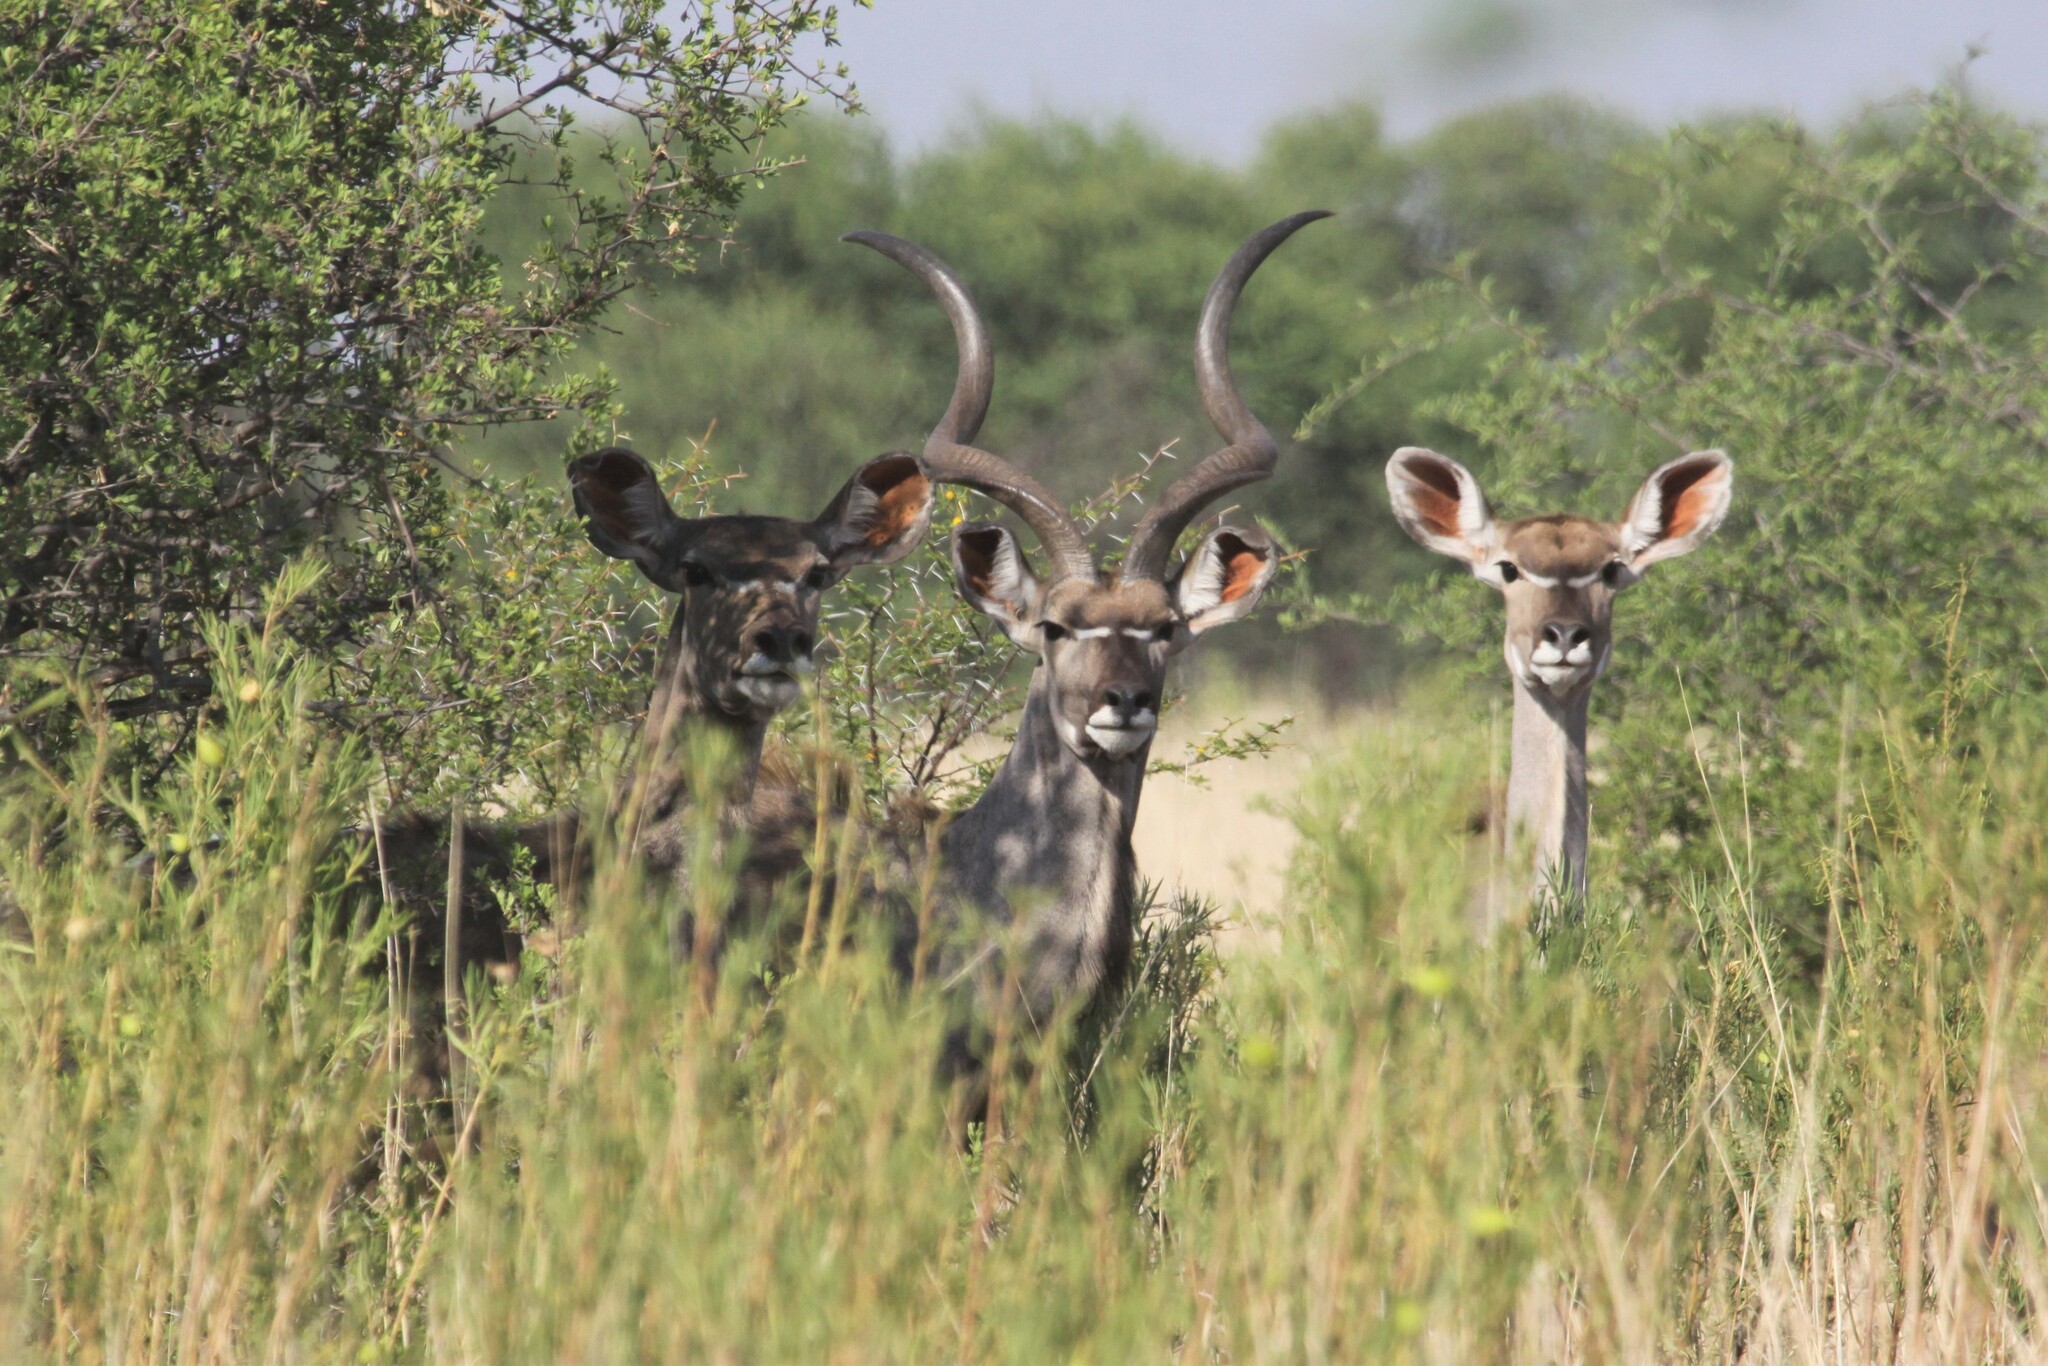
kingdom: Animalia
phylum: Chordata
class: Mammalia
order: Artiodactyla
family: Bovidae
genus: Tragelaphus
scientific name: Tragelaphus strepsiceros
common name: Greater kudu
